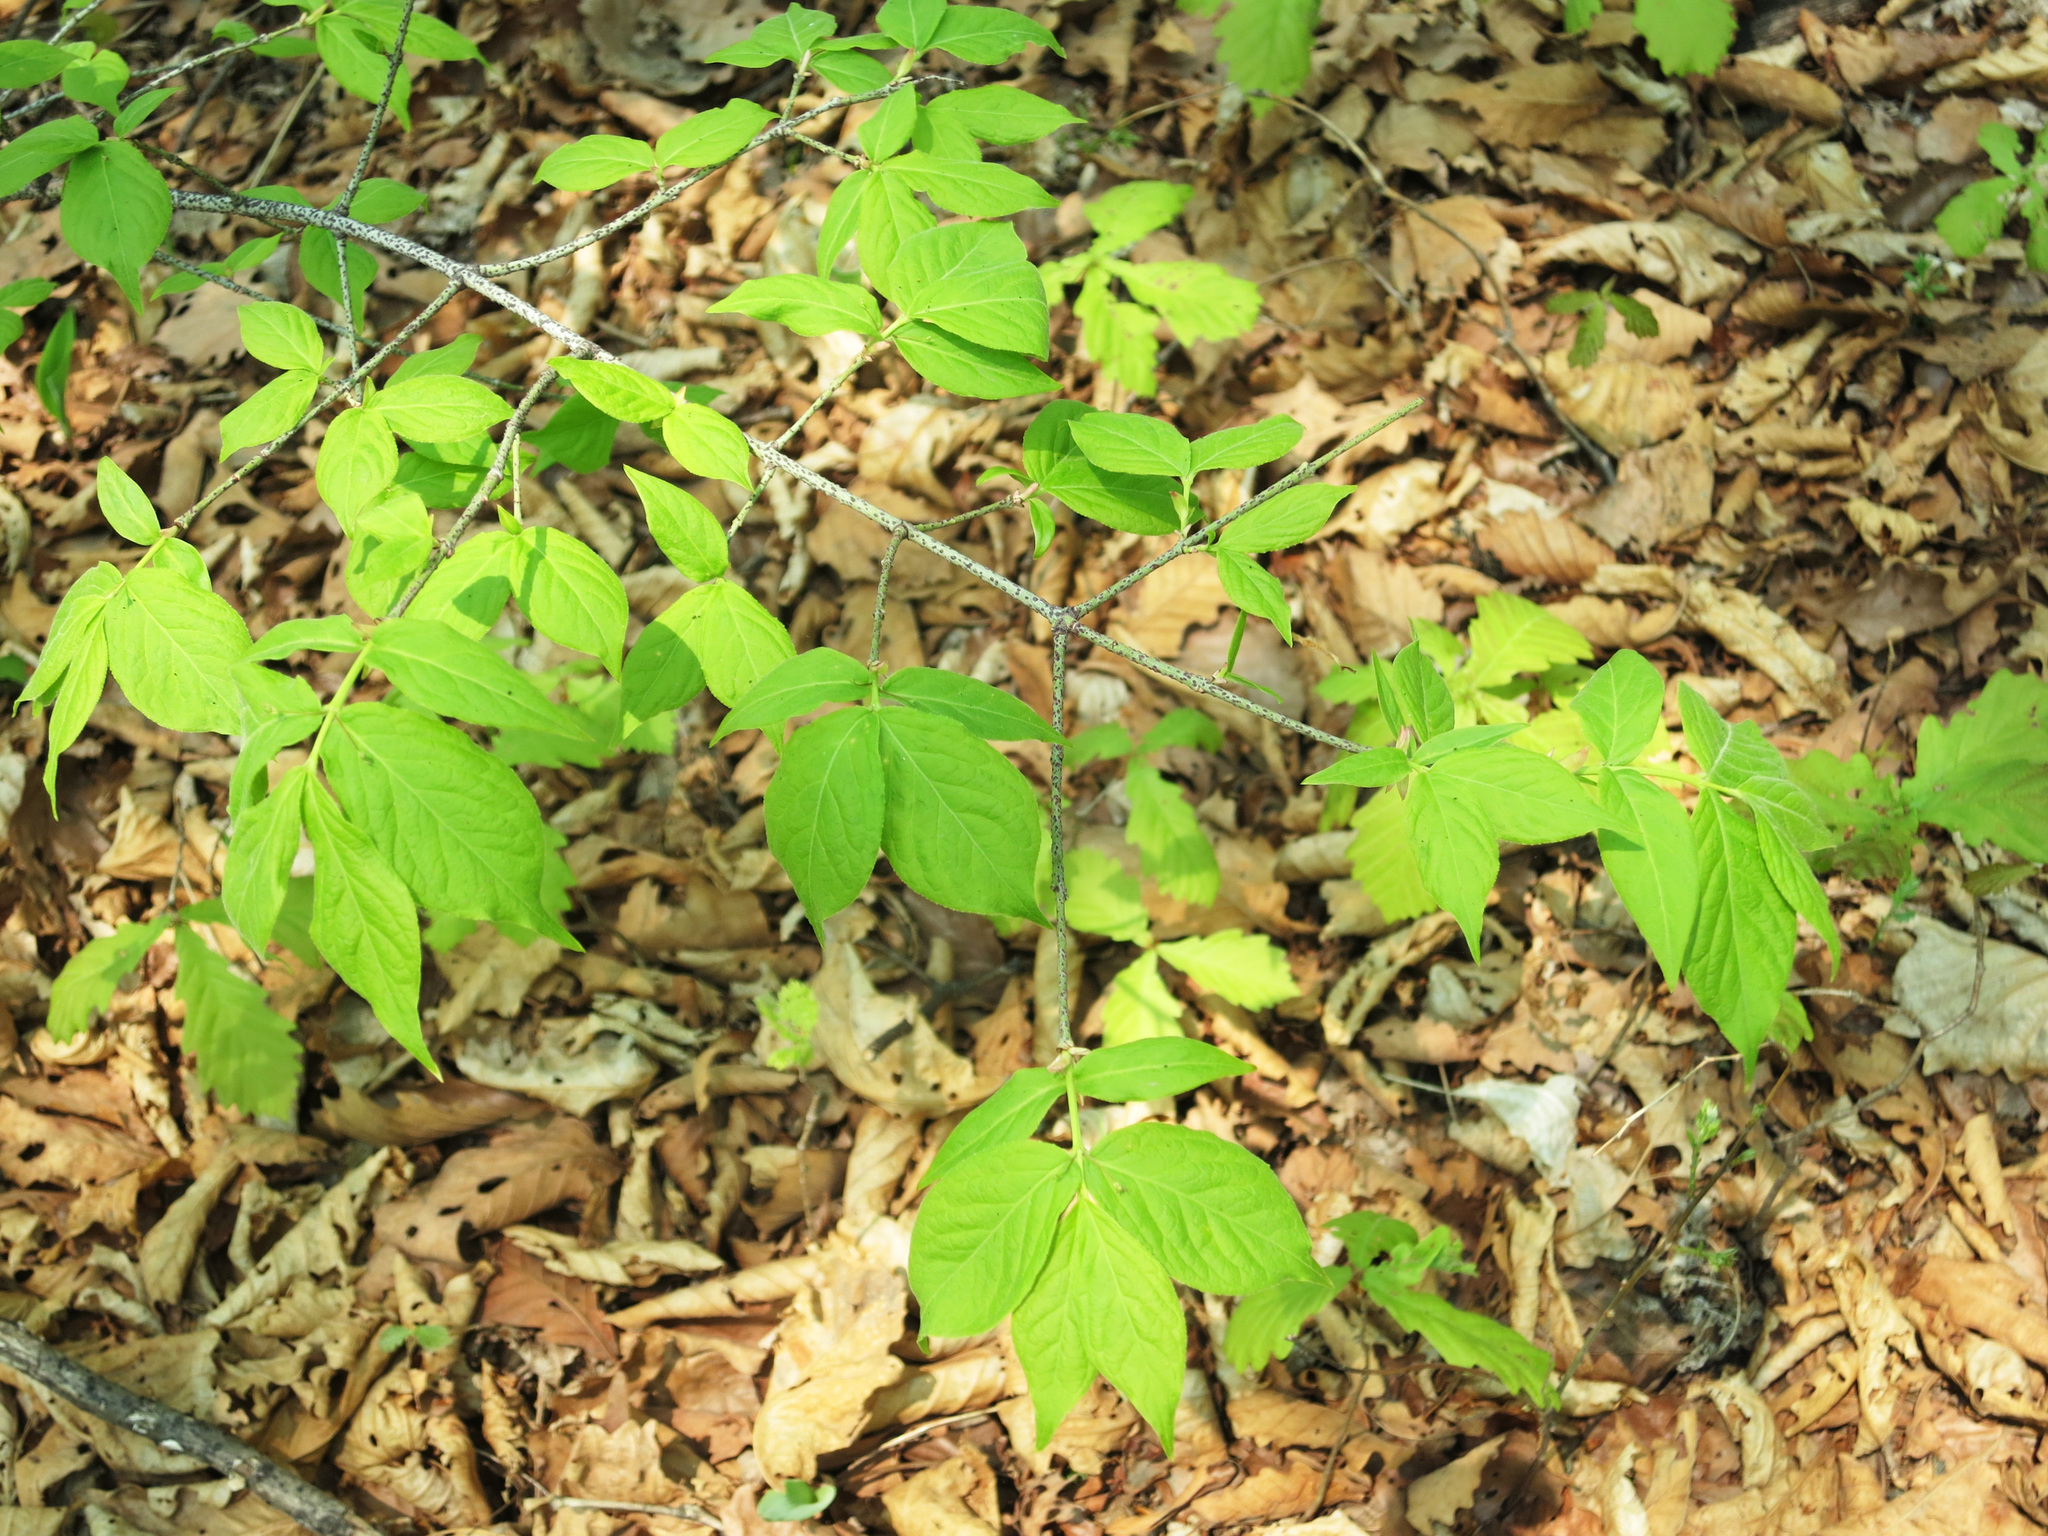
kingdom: Plantae
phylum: Tracheophyta
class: Magnoliopsida
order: Celastrales
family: Celastraceae
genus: Euonymus
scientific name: Euonymus verrucosus
